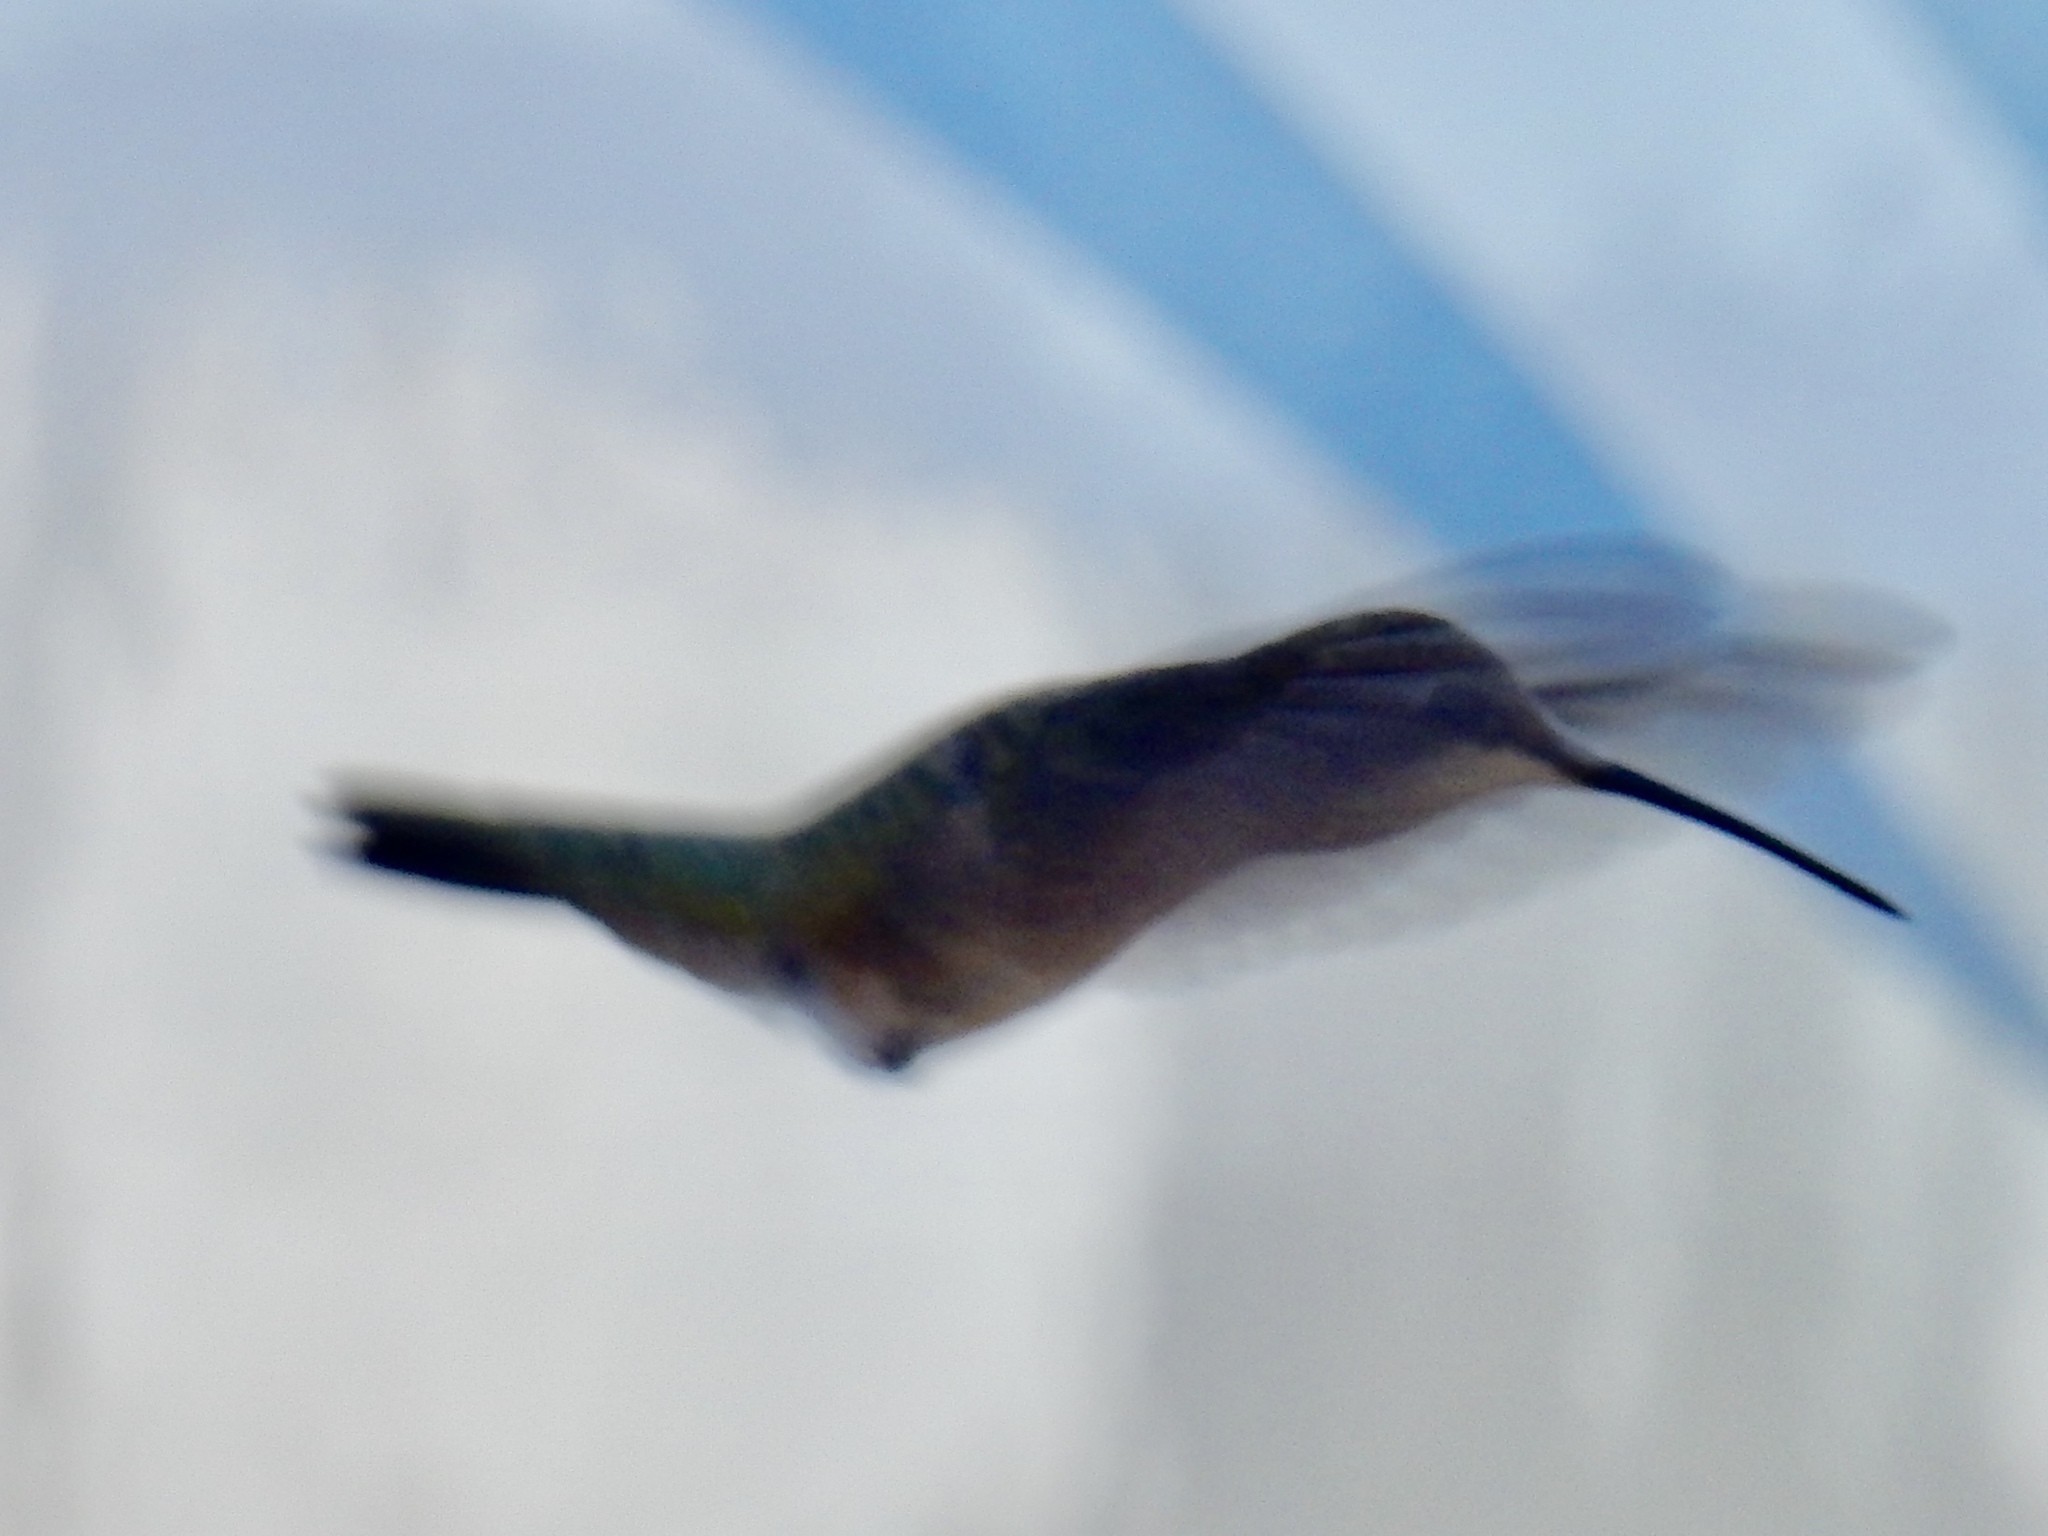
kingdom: Animalia
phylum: Chordata
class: Aves
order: Apodiformes
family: Trochilidae
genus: Archilochus
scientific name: Archilochus alexandri
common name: Black-chinned hummingbird
